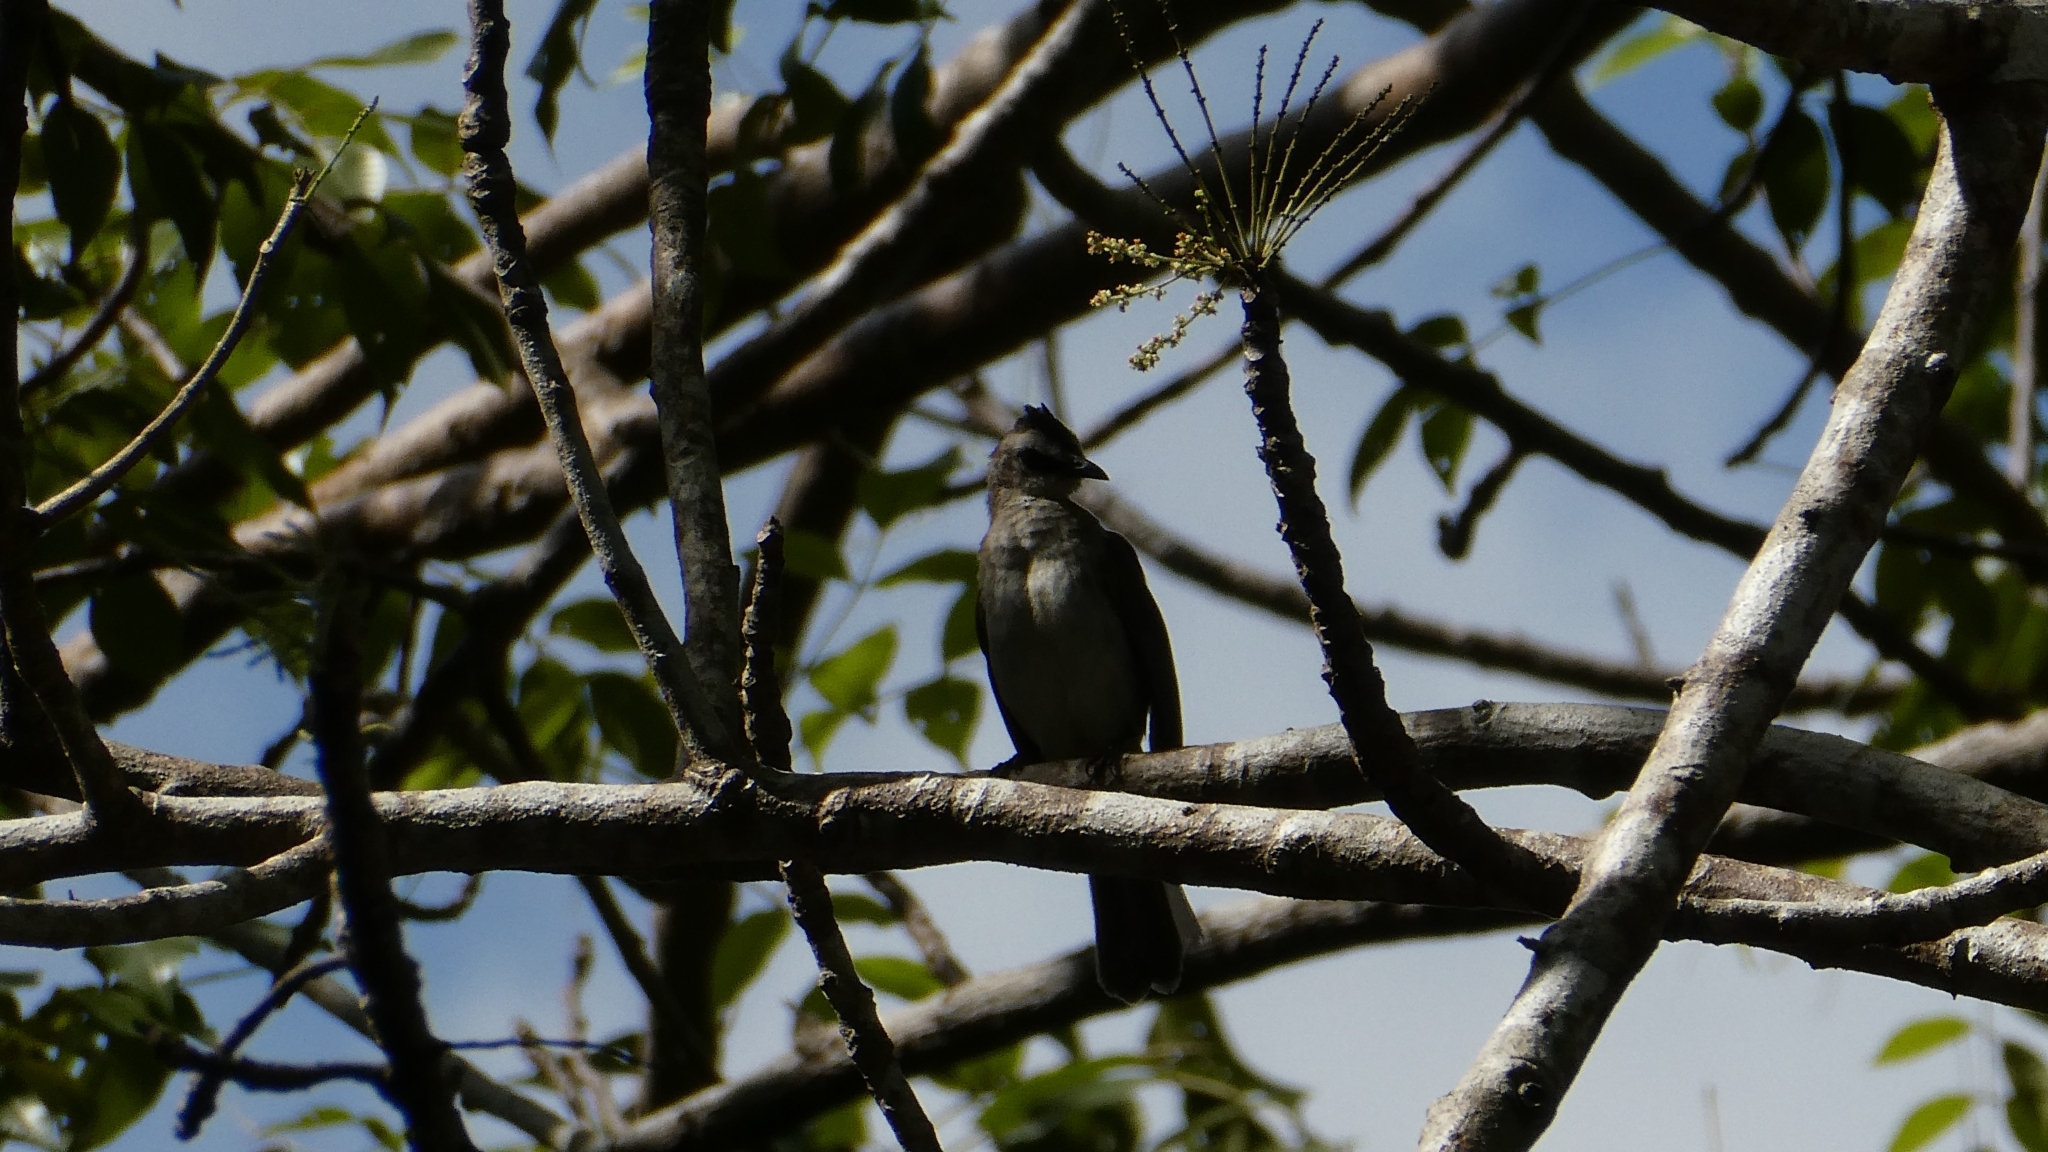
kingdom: Animalia
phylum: Chordata
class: Aves
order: Passeriformes
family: Pycnonotidae
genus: Pycnonotus
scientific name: Pycnonotus goiavier
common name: Yellow-vented bulbul
